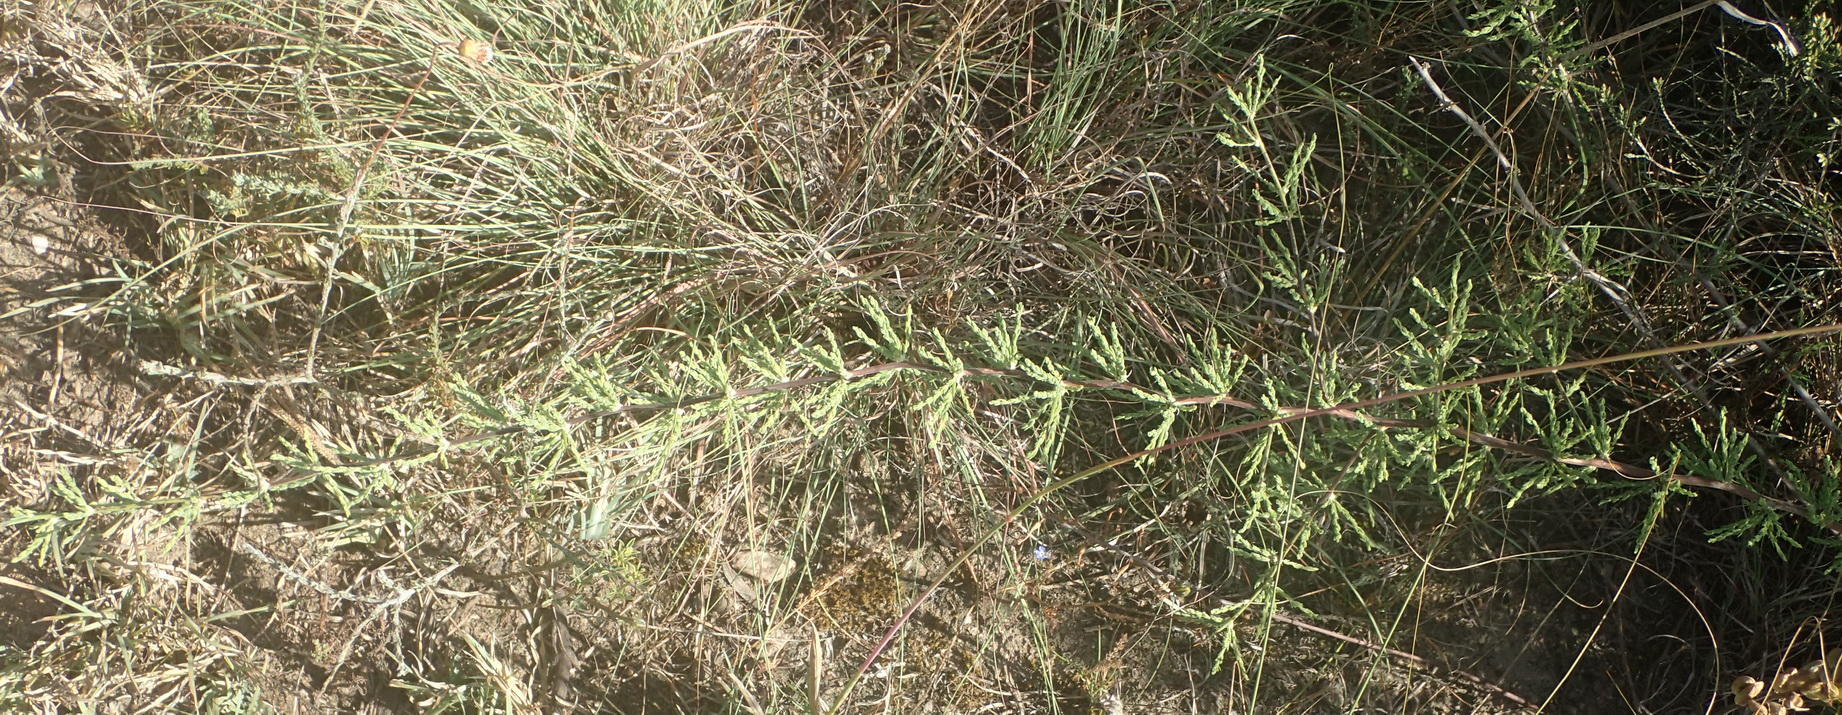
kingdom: Plantae
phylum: Tracheophyta
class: Liliopsida
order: Asparagales
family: Asparagaceae
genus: Asparagus
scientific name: Asparagus capensis
